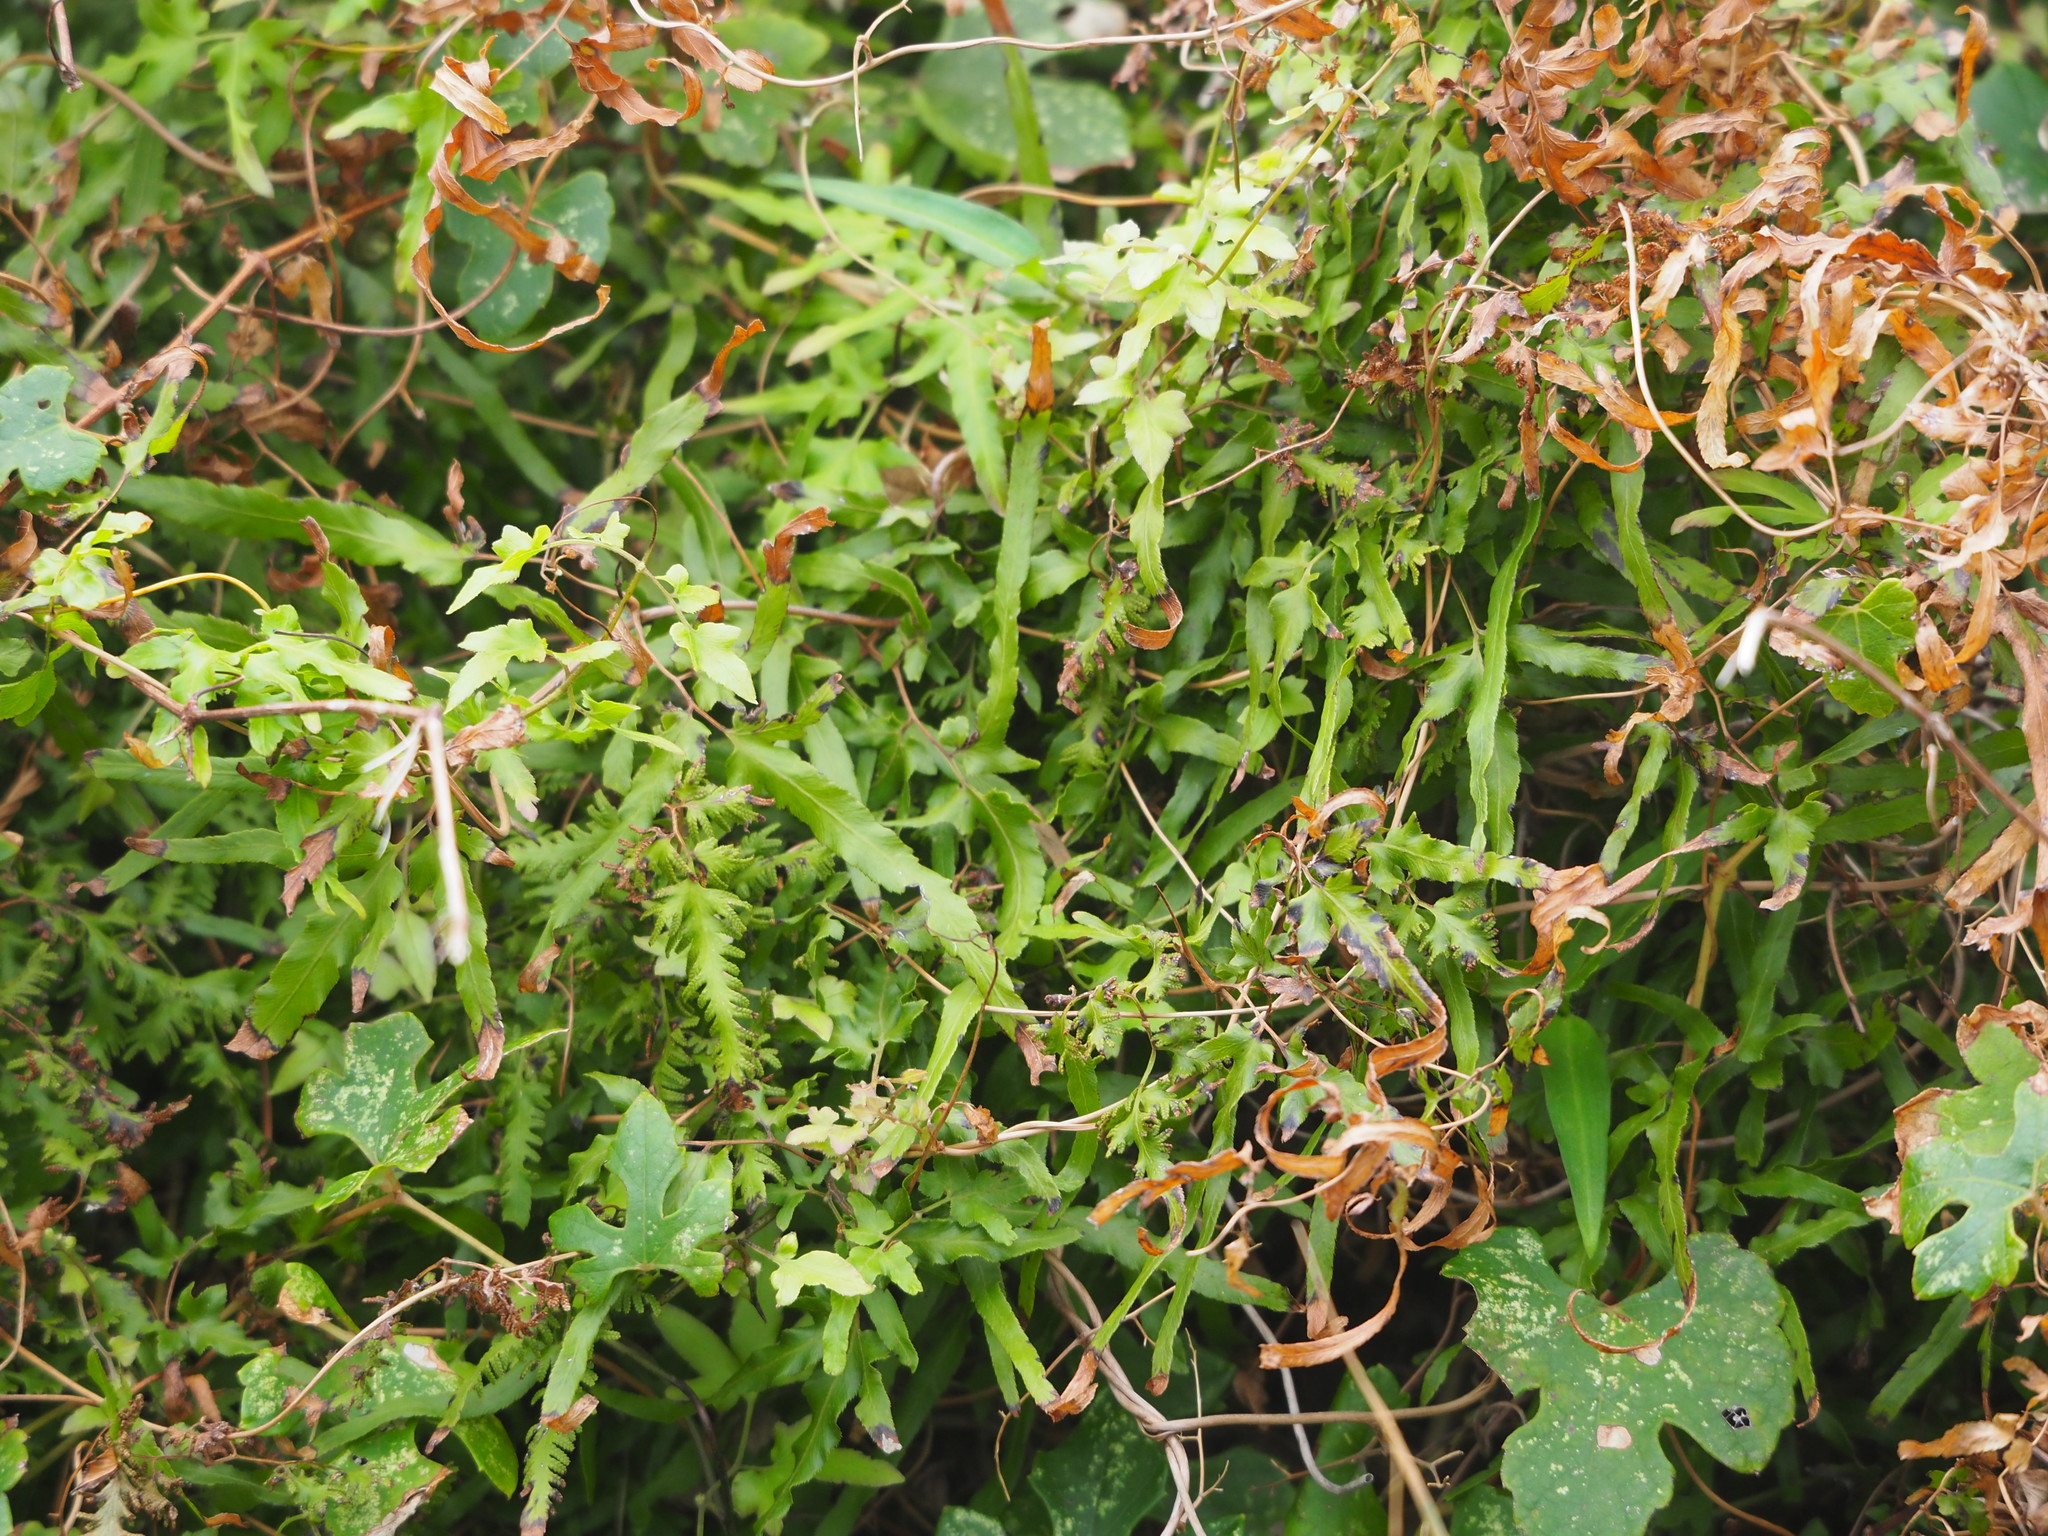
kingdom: Plantae
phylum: Tracheophyta
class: Polypodiopsida
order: Schizaeales
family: Lygodiaceae
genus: Lygodium
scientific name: Lygodium japonicum
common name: Japanese climbing fern
